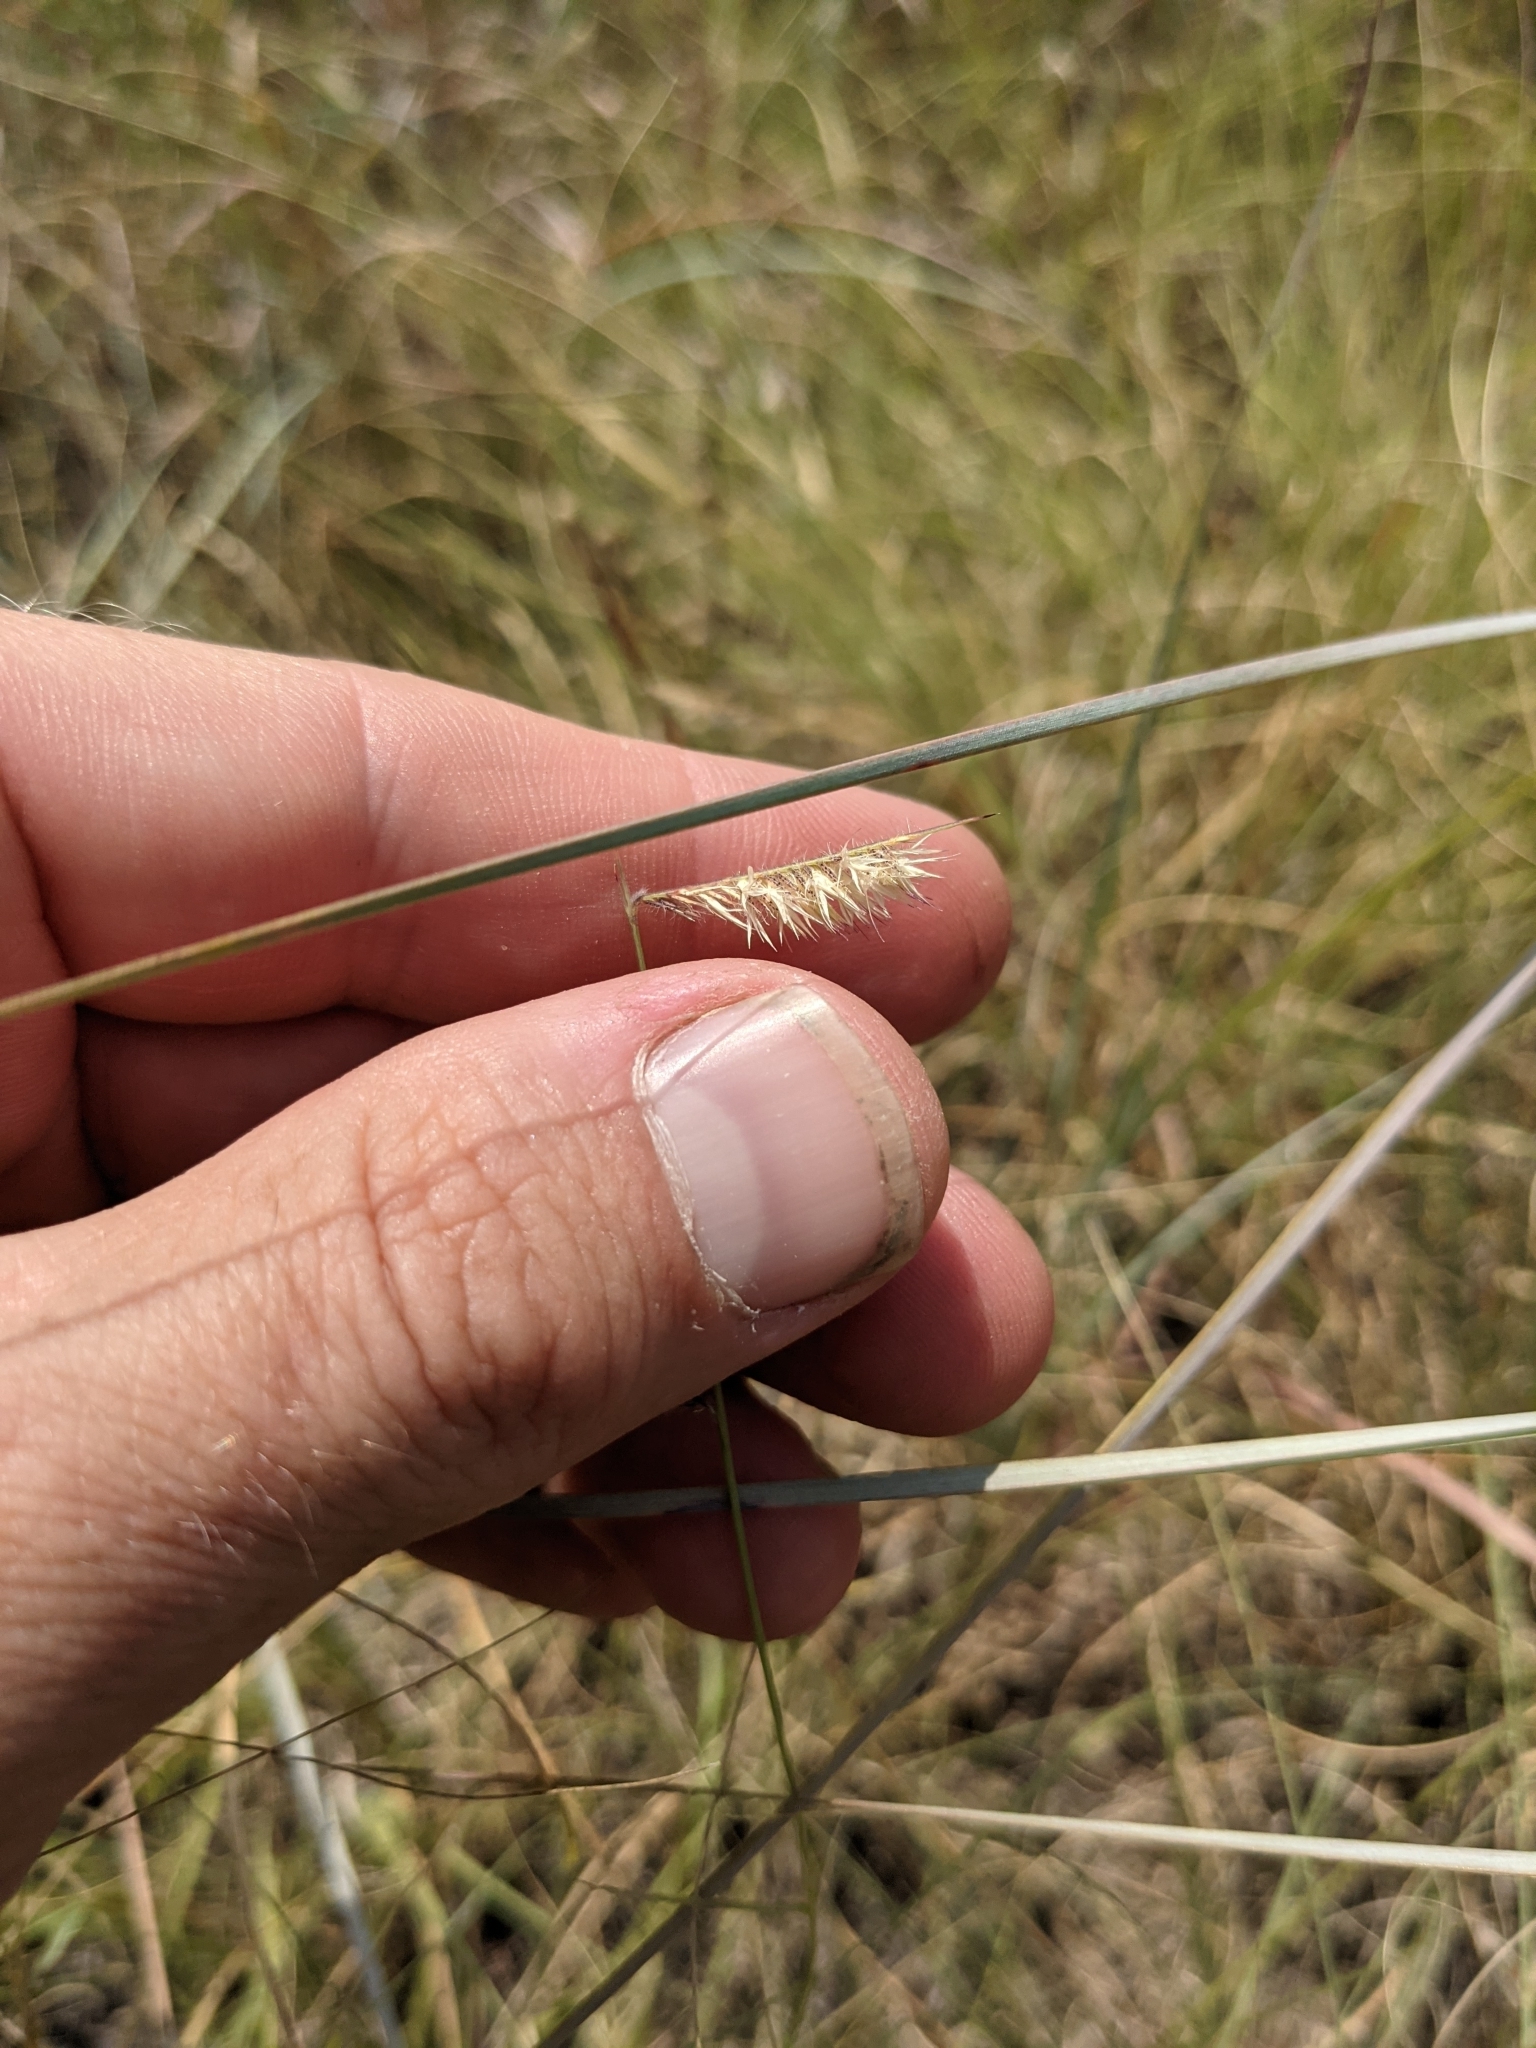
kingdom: Plantae
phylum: Tracheophyta
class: Liliopsida
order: Poales
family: Poaceae
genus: Bouteloua
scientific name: Bouteloua hirsuta
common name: Hairy grama
